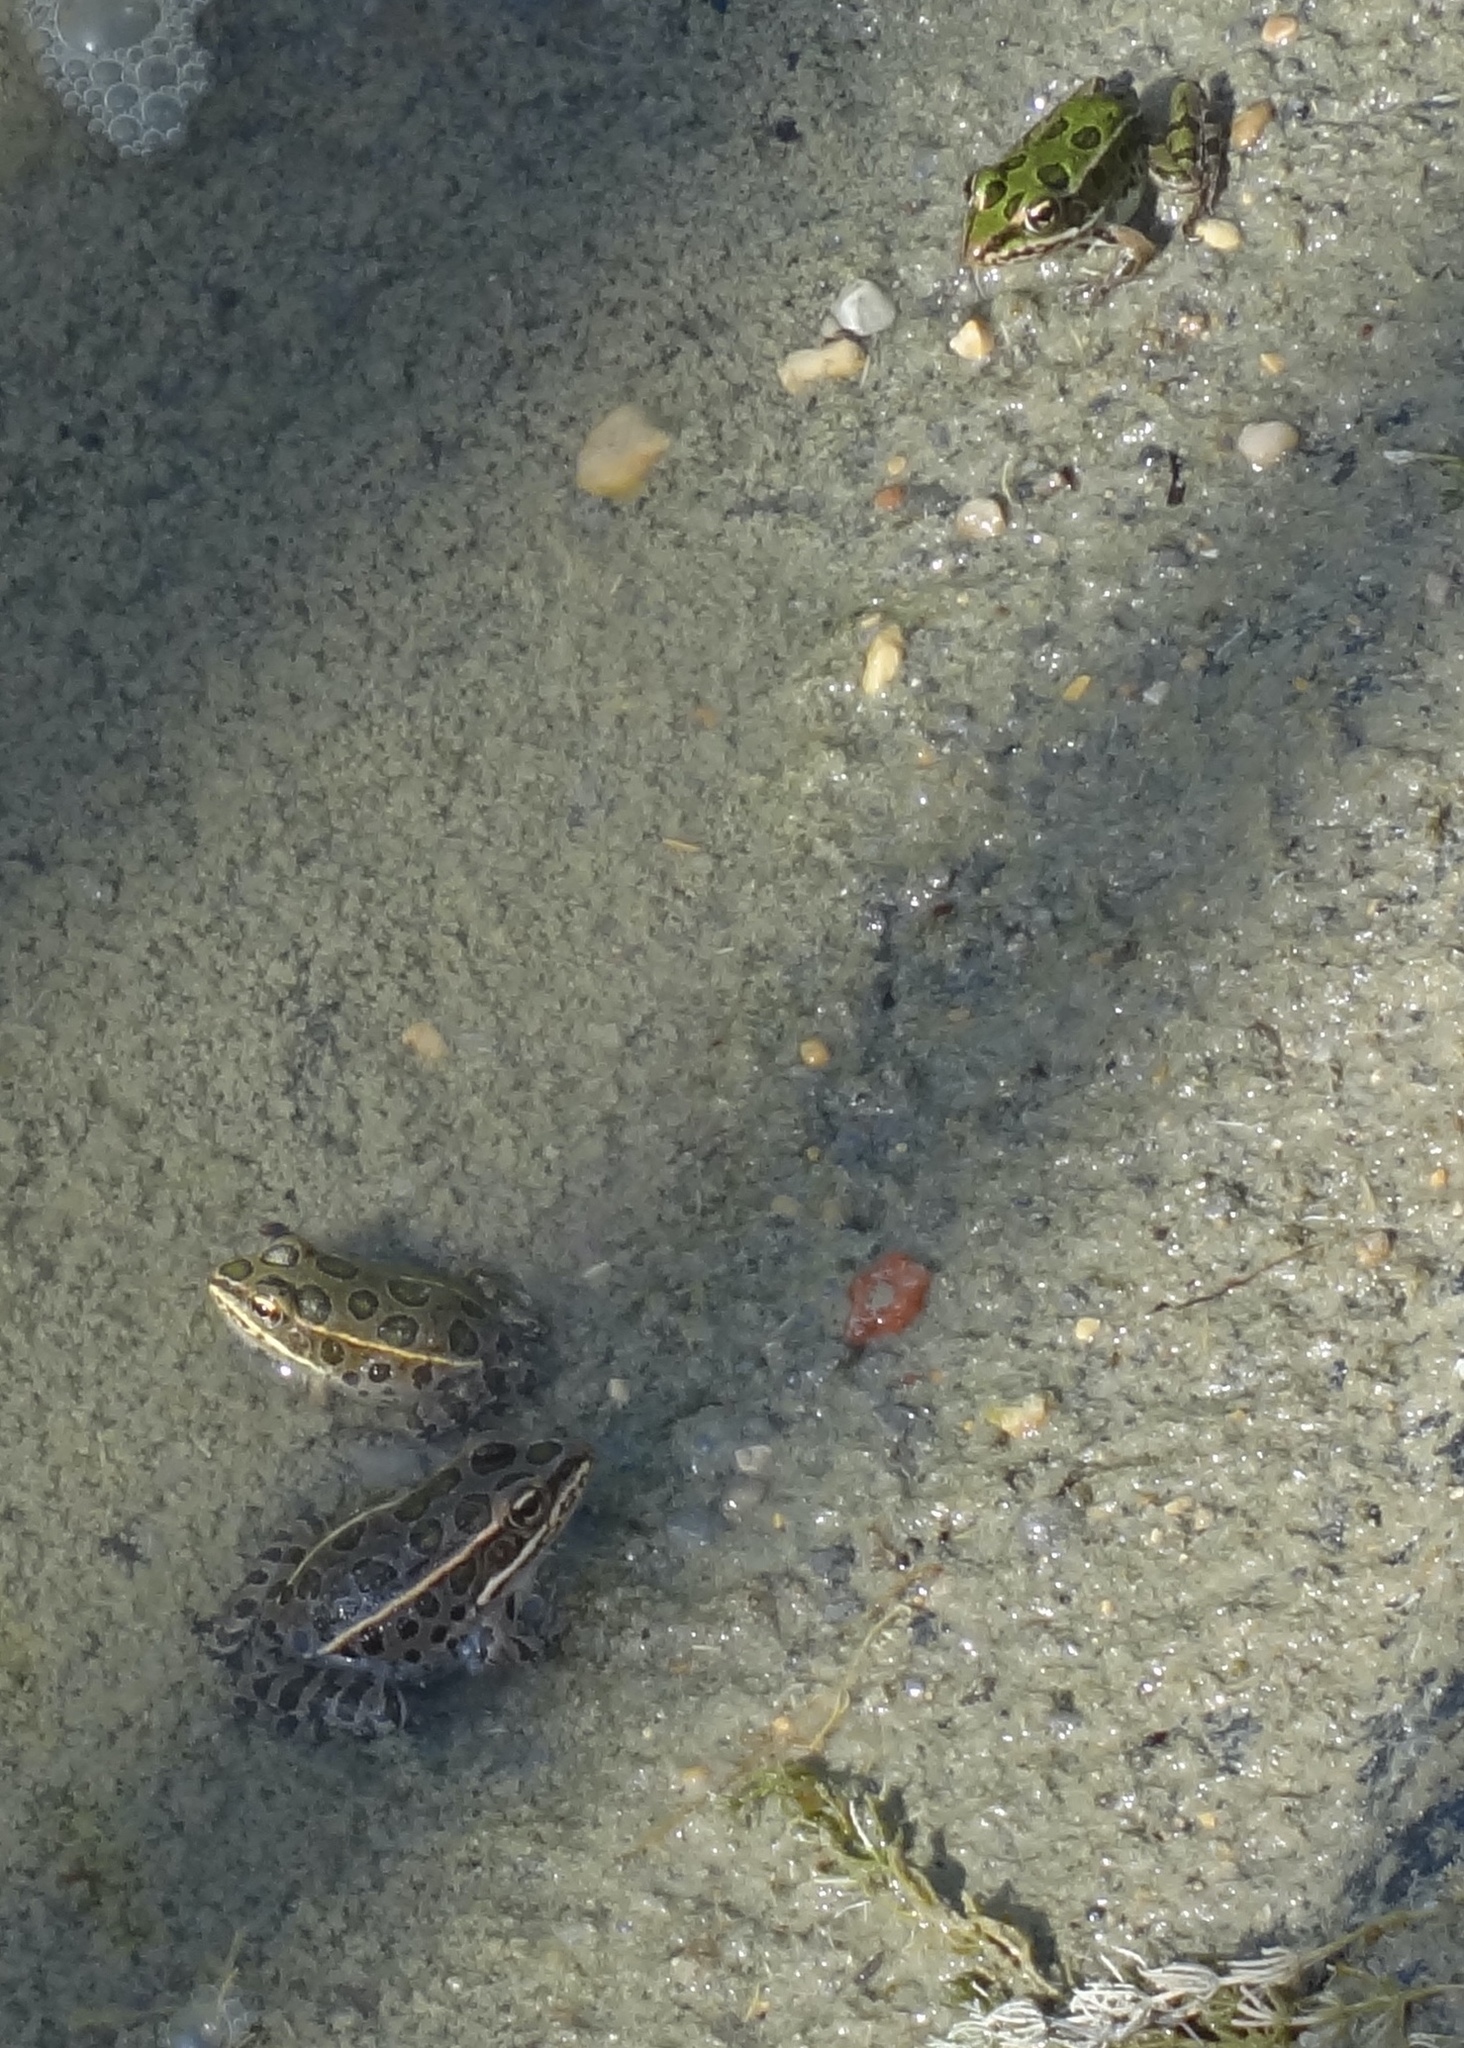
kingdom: Animalia
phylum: Chordata
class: Amphibia
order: Anura
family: Ranidae
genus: Lithobates
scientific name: Lithobates pipiens
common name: Northern leopard frog
